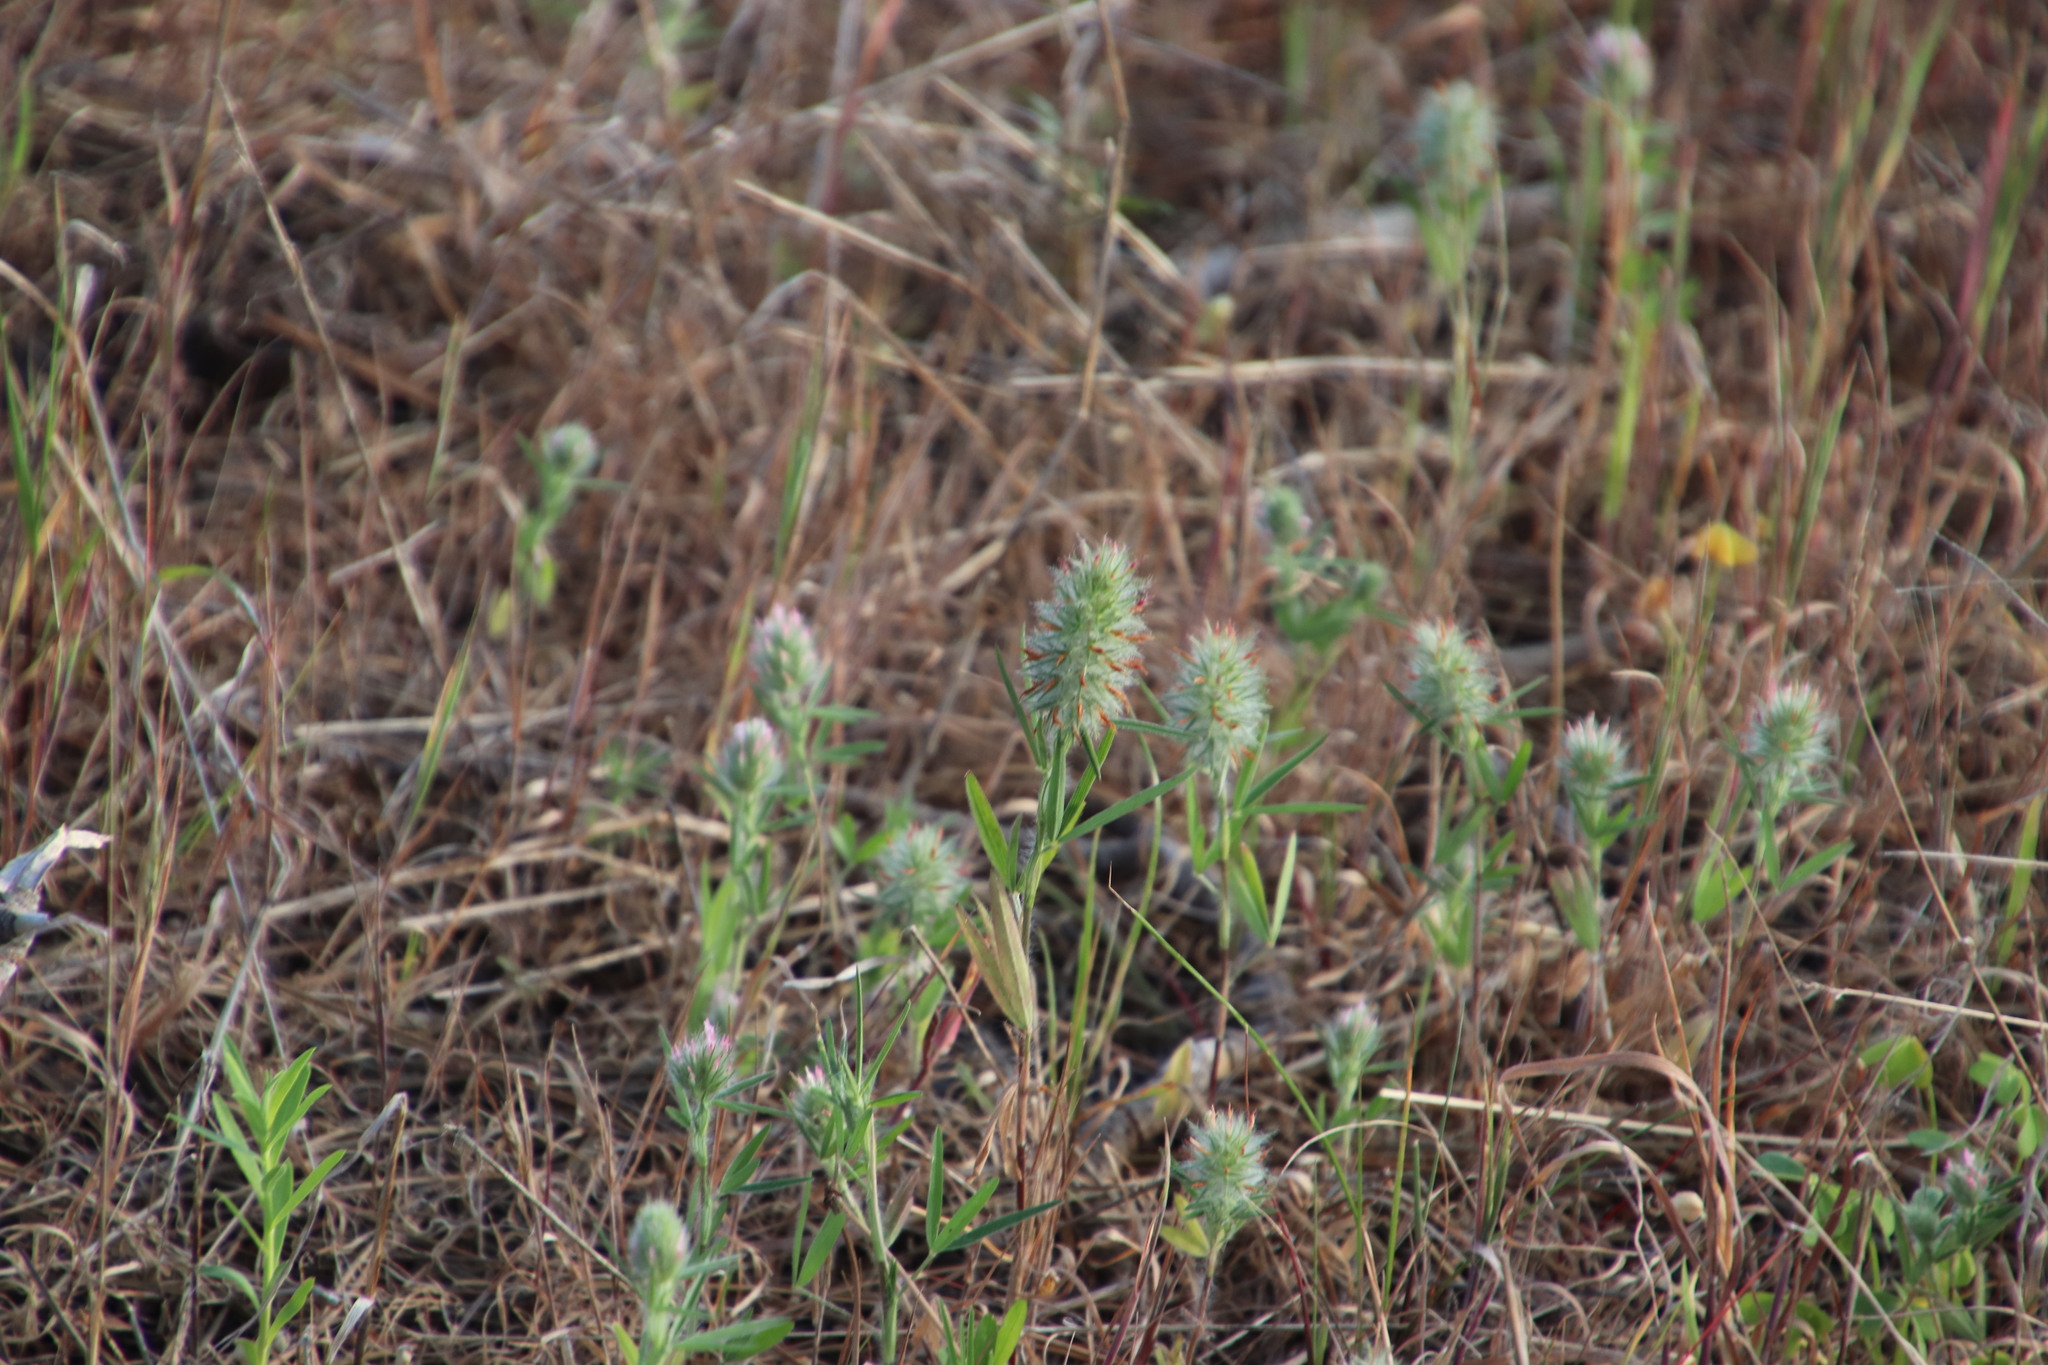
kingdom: Plantae
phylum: Tracheophyta
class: Magnoliopsida
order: Fabales
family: Fabaceae
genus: Trifolium
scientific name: Trifolium angustifolium
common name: Narrow clover
